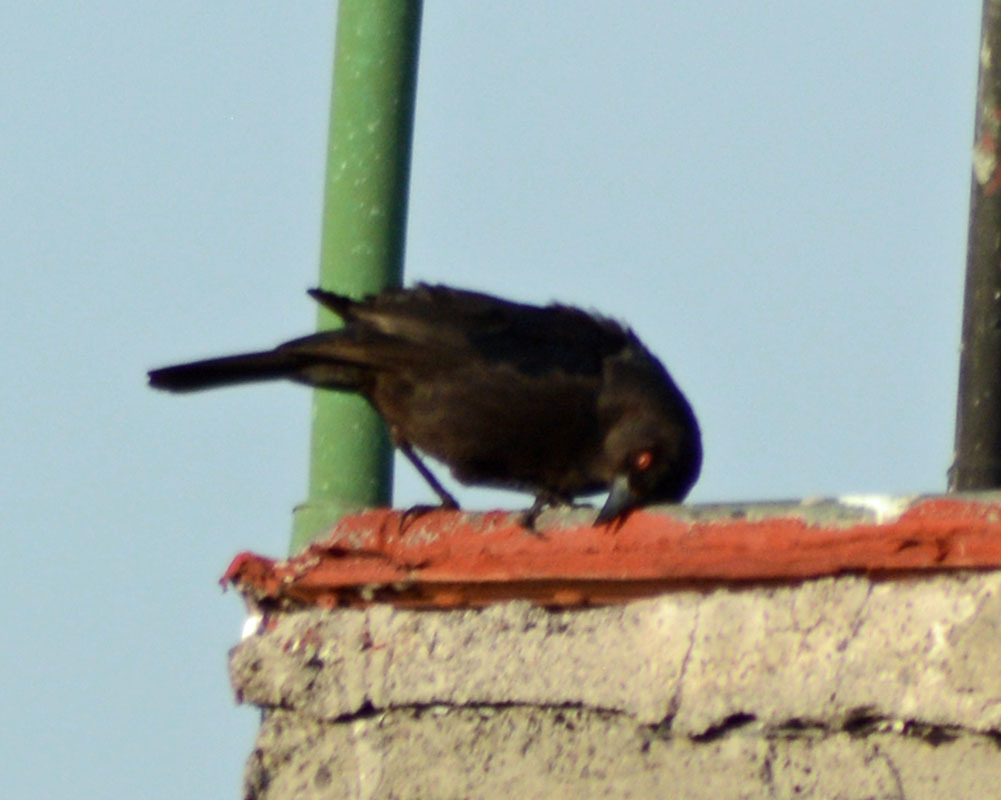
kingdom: Animalia
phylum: Chordata
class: Aves
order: Passeriformes
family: Icteridae
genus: Molothrus
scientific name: Molothrus aeneus
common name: Bronzed cowbird
